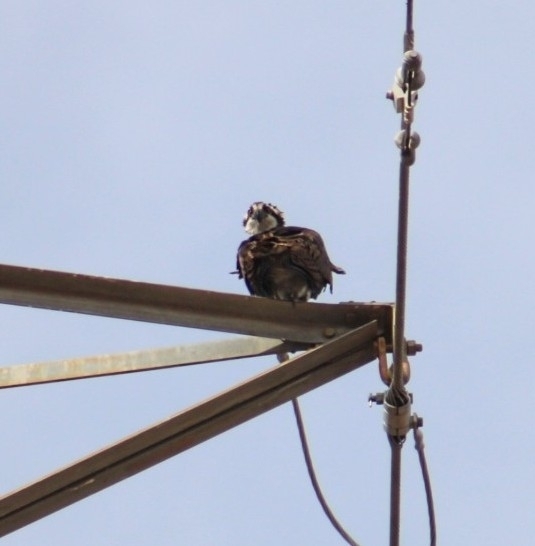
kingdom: Animalia
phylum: Chordata
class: Aves
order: Accipitriformes
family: Pandionidae
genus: Pandion
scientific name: Pandion haliaetus
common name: Osprey
